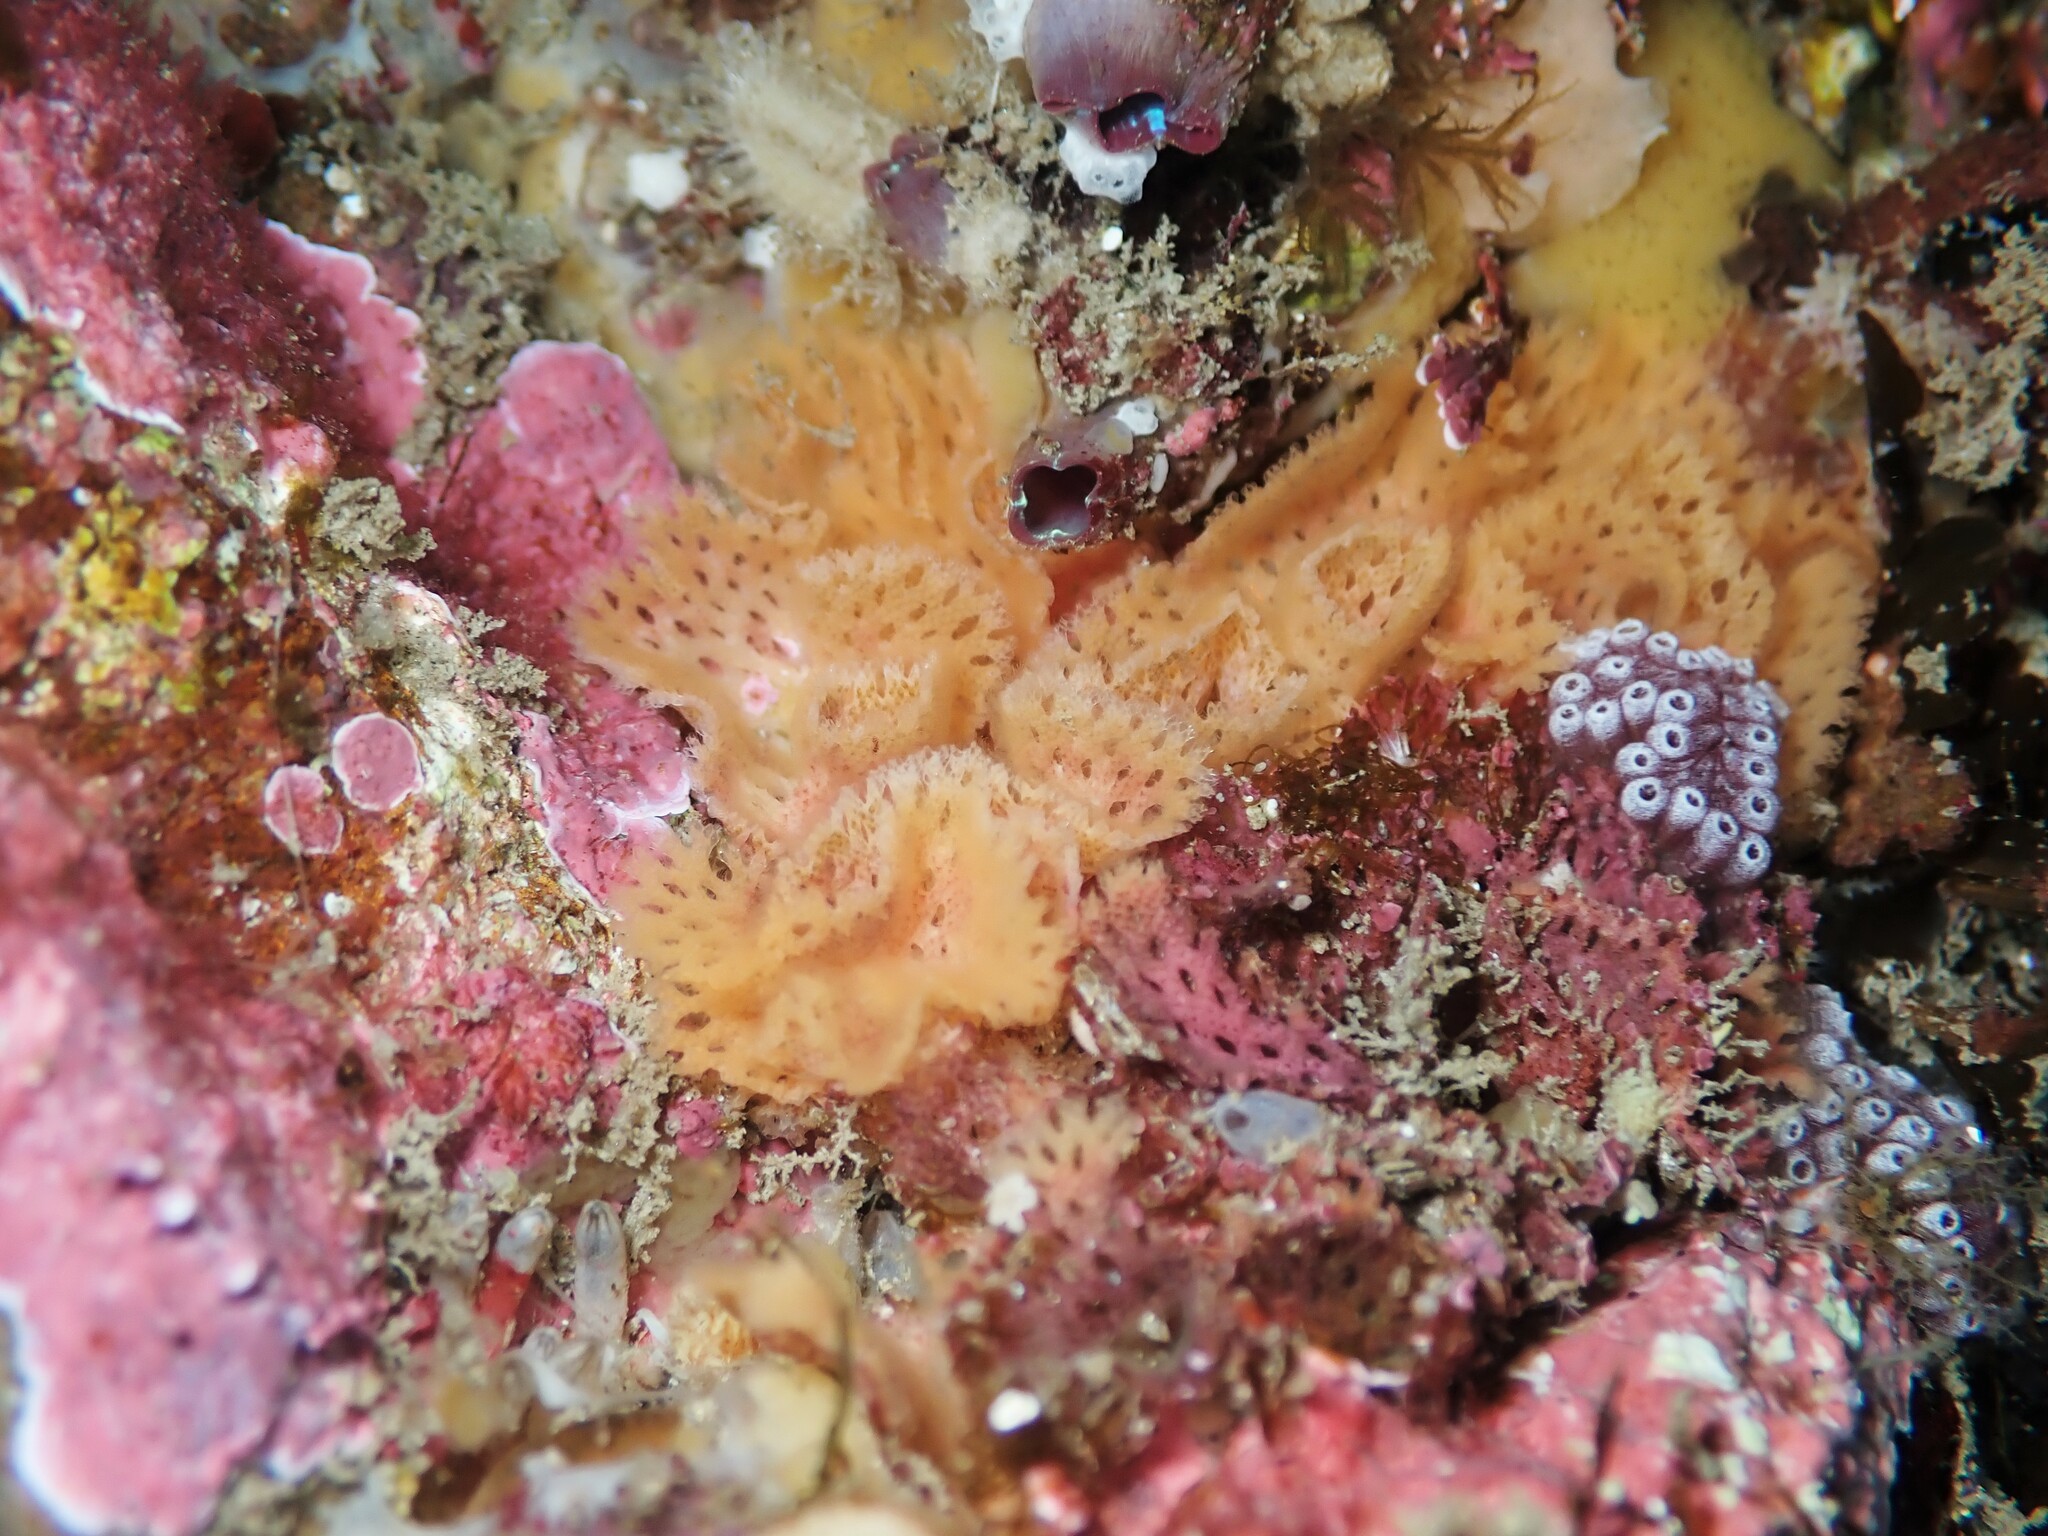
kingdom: Animalia
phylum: Bryozoa
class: Gymnolaemata
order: Cheilostomatida
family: Phidoloporidae
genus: Hippellozoon
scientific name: Hippellozoon novaezelandiae
